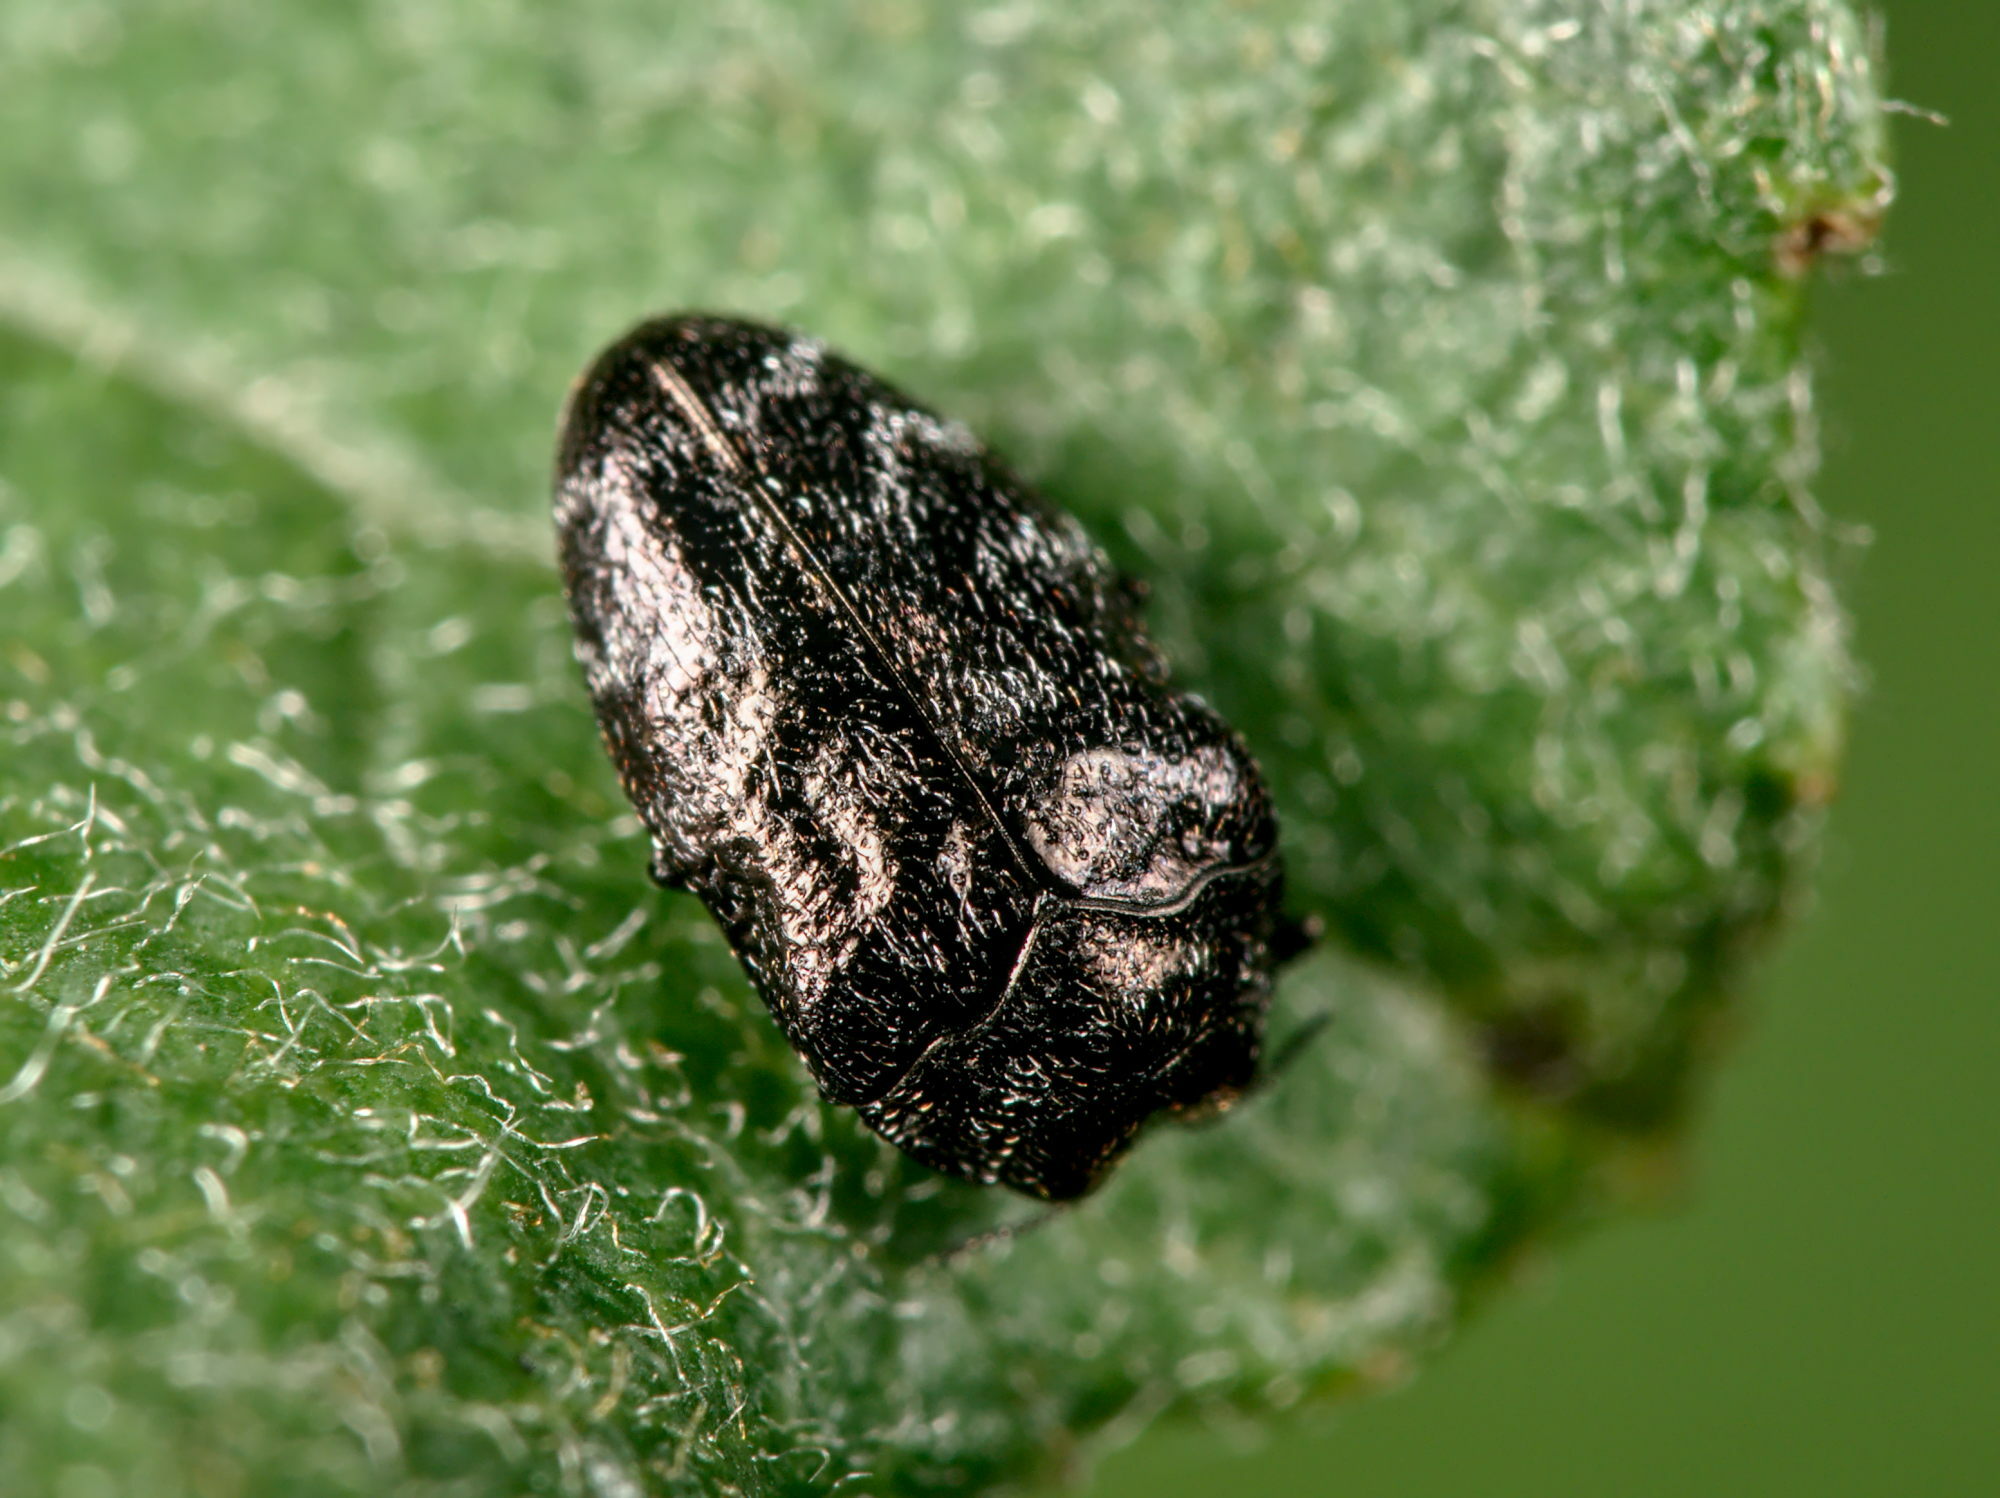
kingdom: Animalia
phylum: Arthropoda
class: Insecta
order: Coleoptera
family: Buprestidae
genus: Trachys
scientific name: Trachys minutus
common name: Metallic wood-boring beetle
